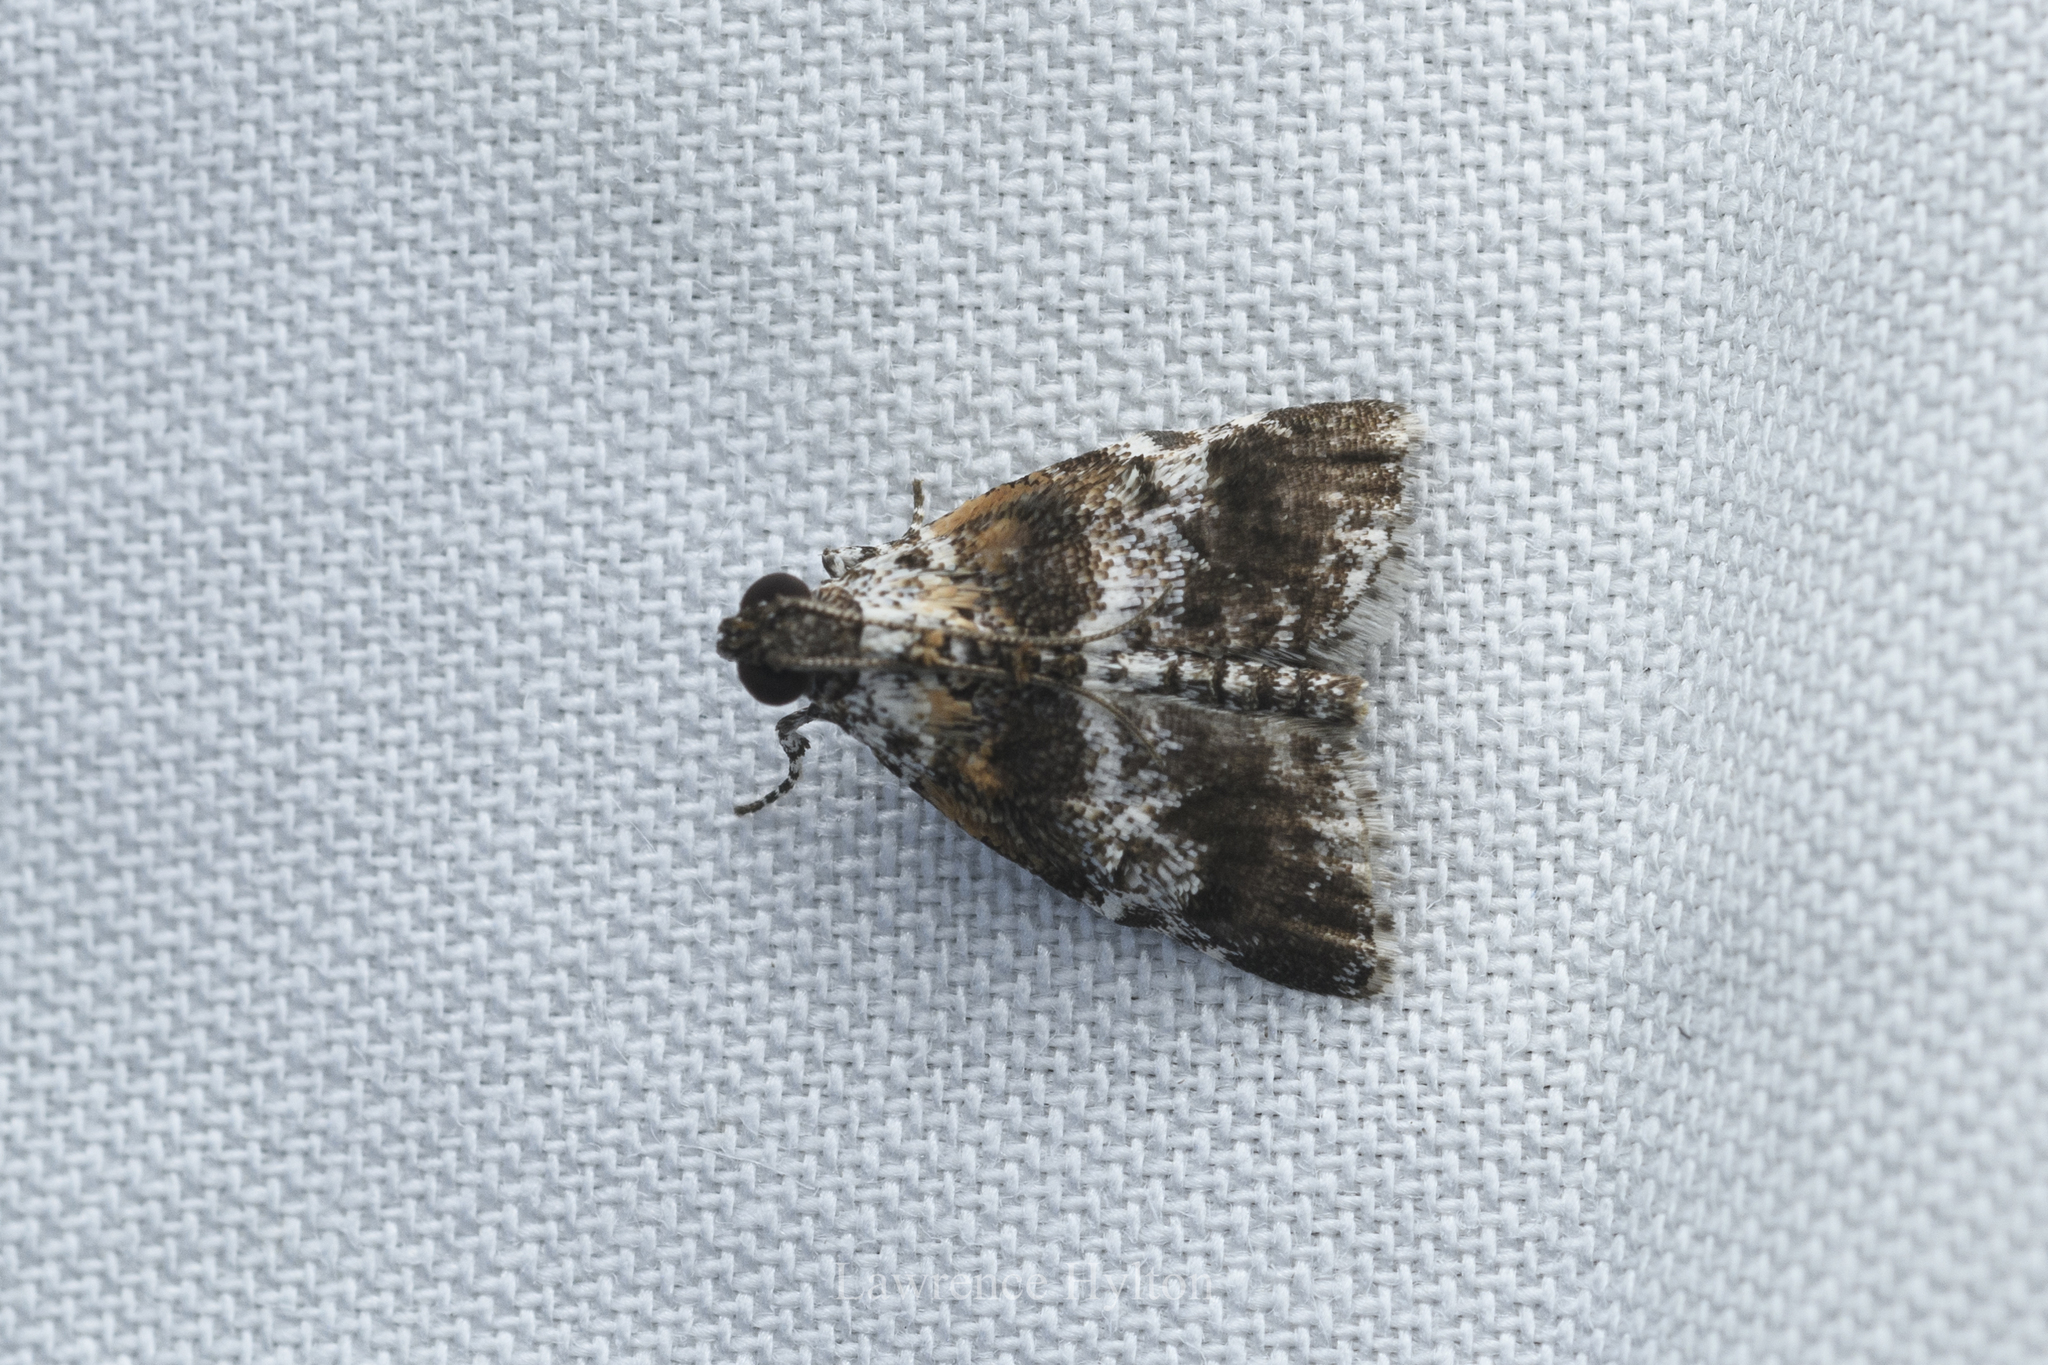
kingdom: Animalia
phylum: Arthropoda
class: Insecta
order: Lepidoptera
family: Pyralidae
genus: Salma
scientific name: Salma
